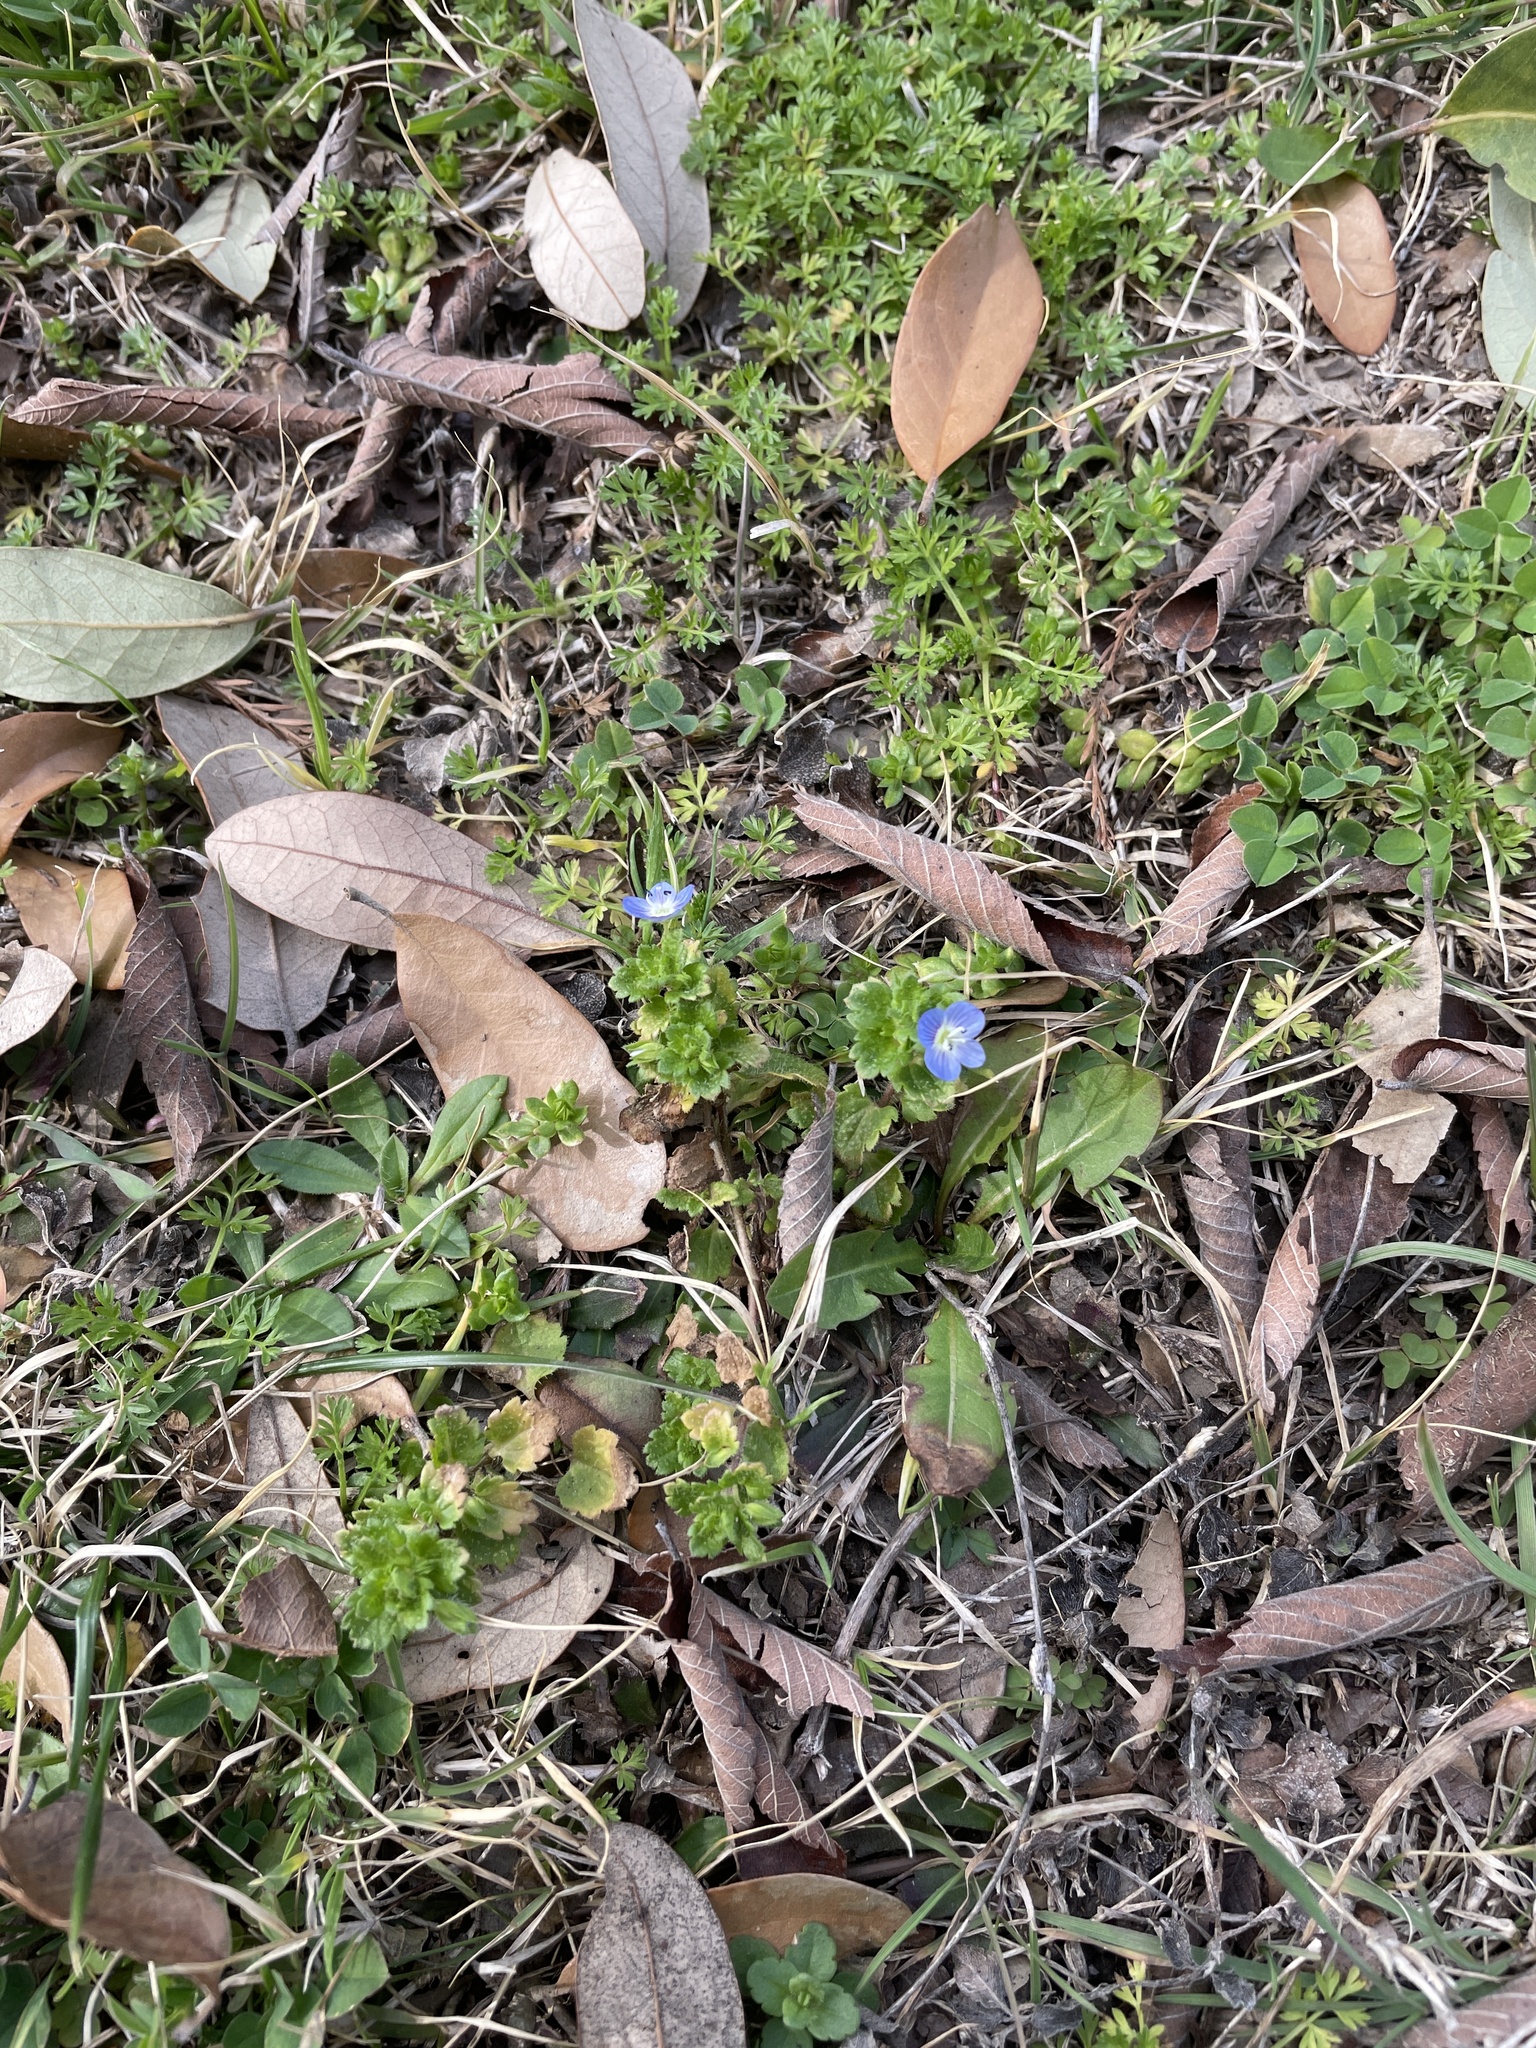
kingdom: Plantae
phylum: Tracheophyta
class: Magnoliopsida
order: Lamiales
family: Plantaginaceae
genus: Veronica
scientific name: Veronica persica
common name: Common field-speedwell
